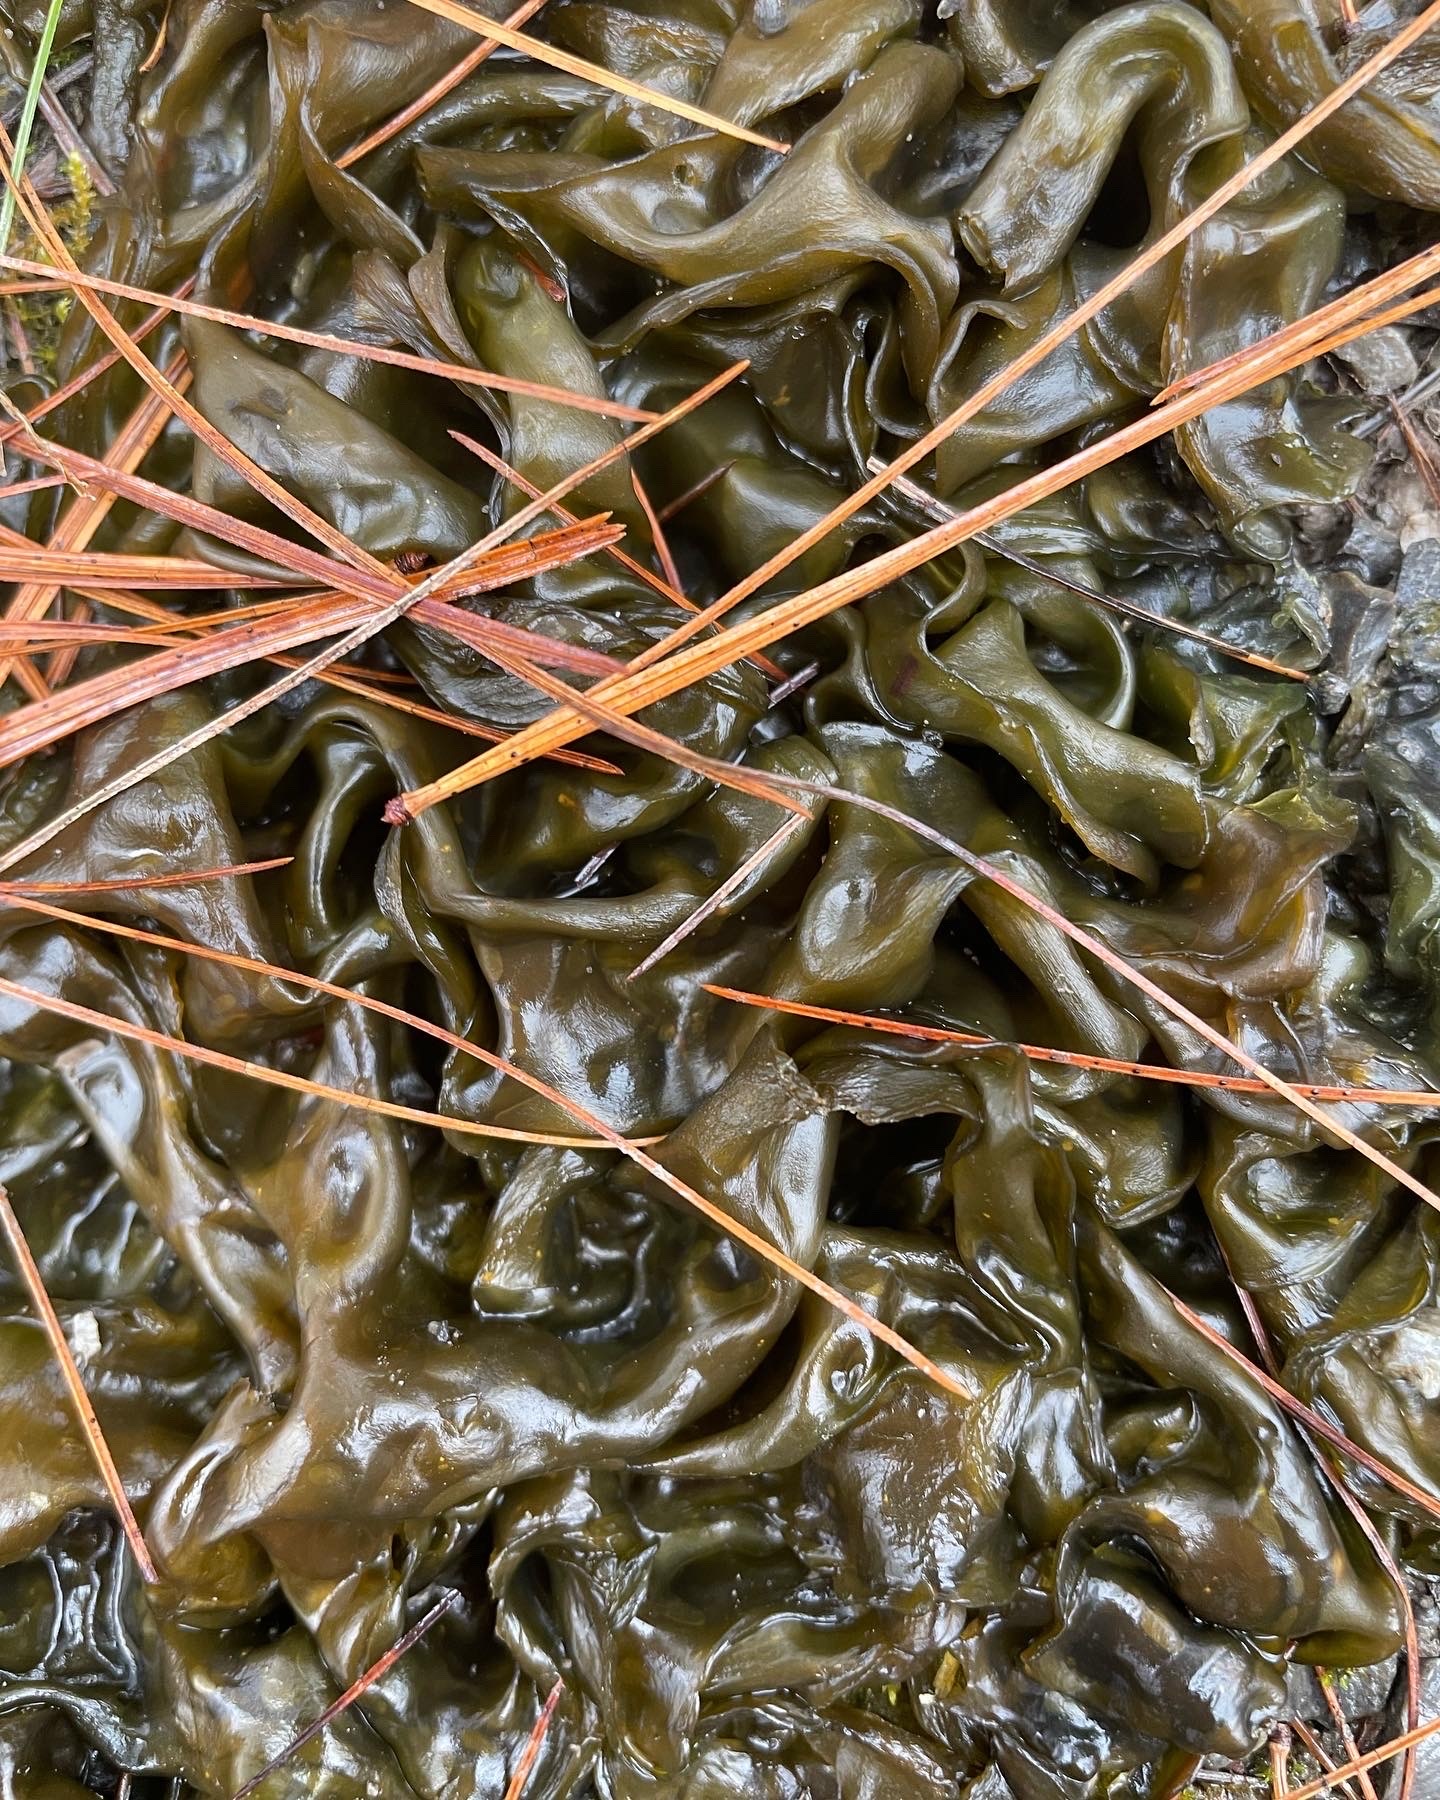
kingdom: Bacteria
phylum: Cyanobacteria
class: Cyanobacteriia
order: Cyanobacteriales
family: Nostocaceae
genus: Nostoc
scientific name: Nostoc commune
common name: Star jelly
